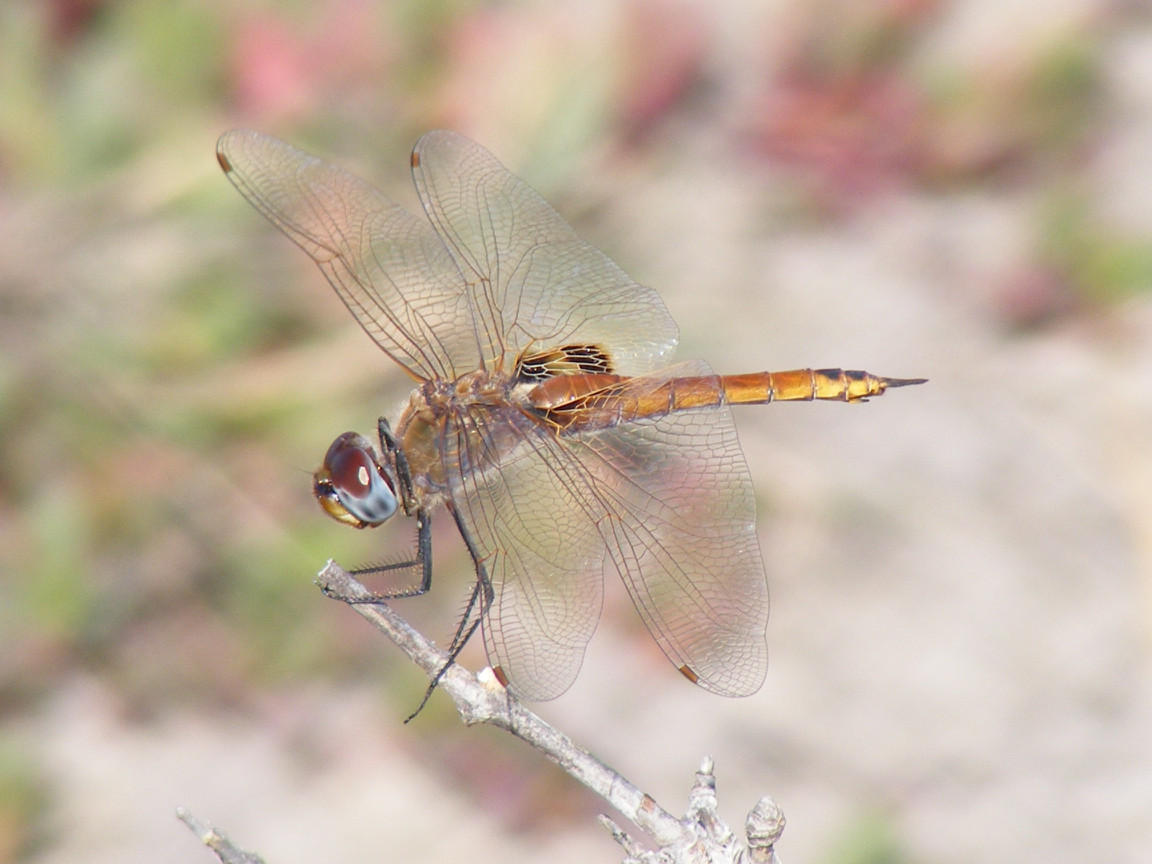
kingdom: Animalia
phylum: Arthropoda
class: Insecta
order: Odonata
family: Libellulidae
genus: Tramea
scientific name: Tramea basilaris
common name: Keyhole glider
